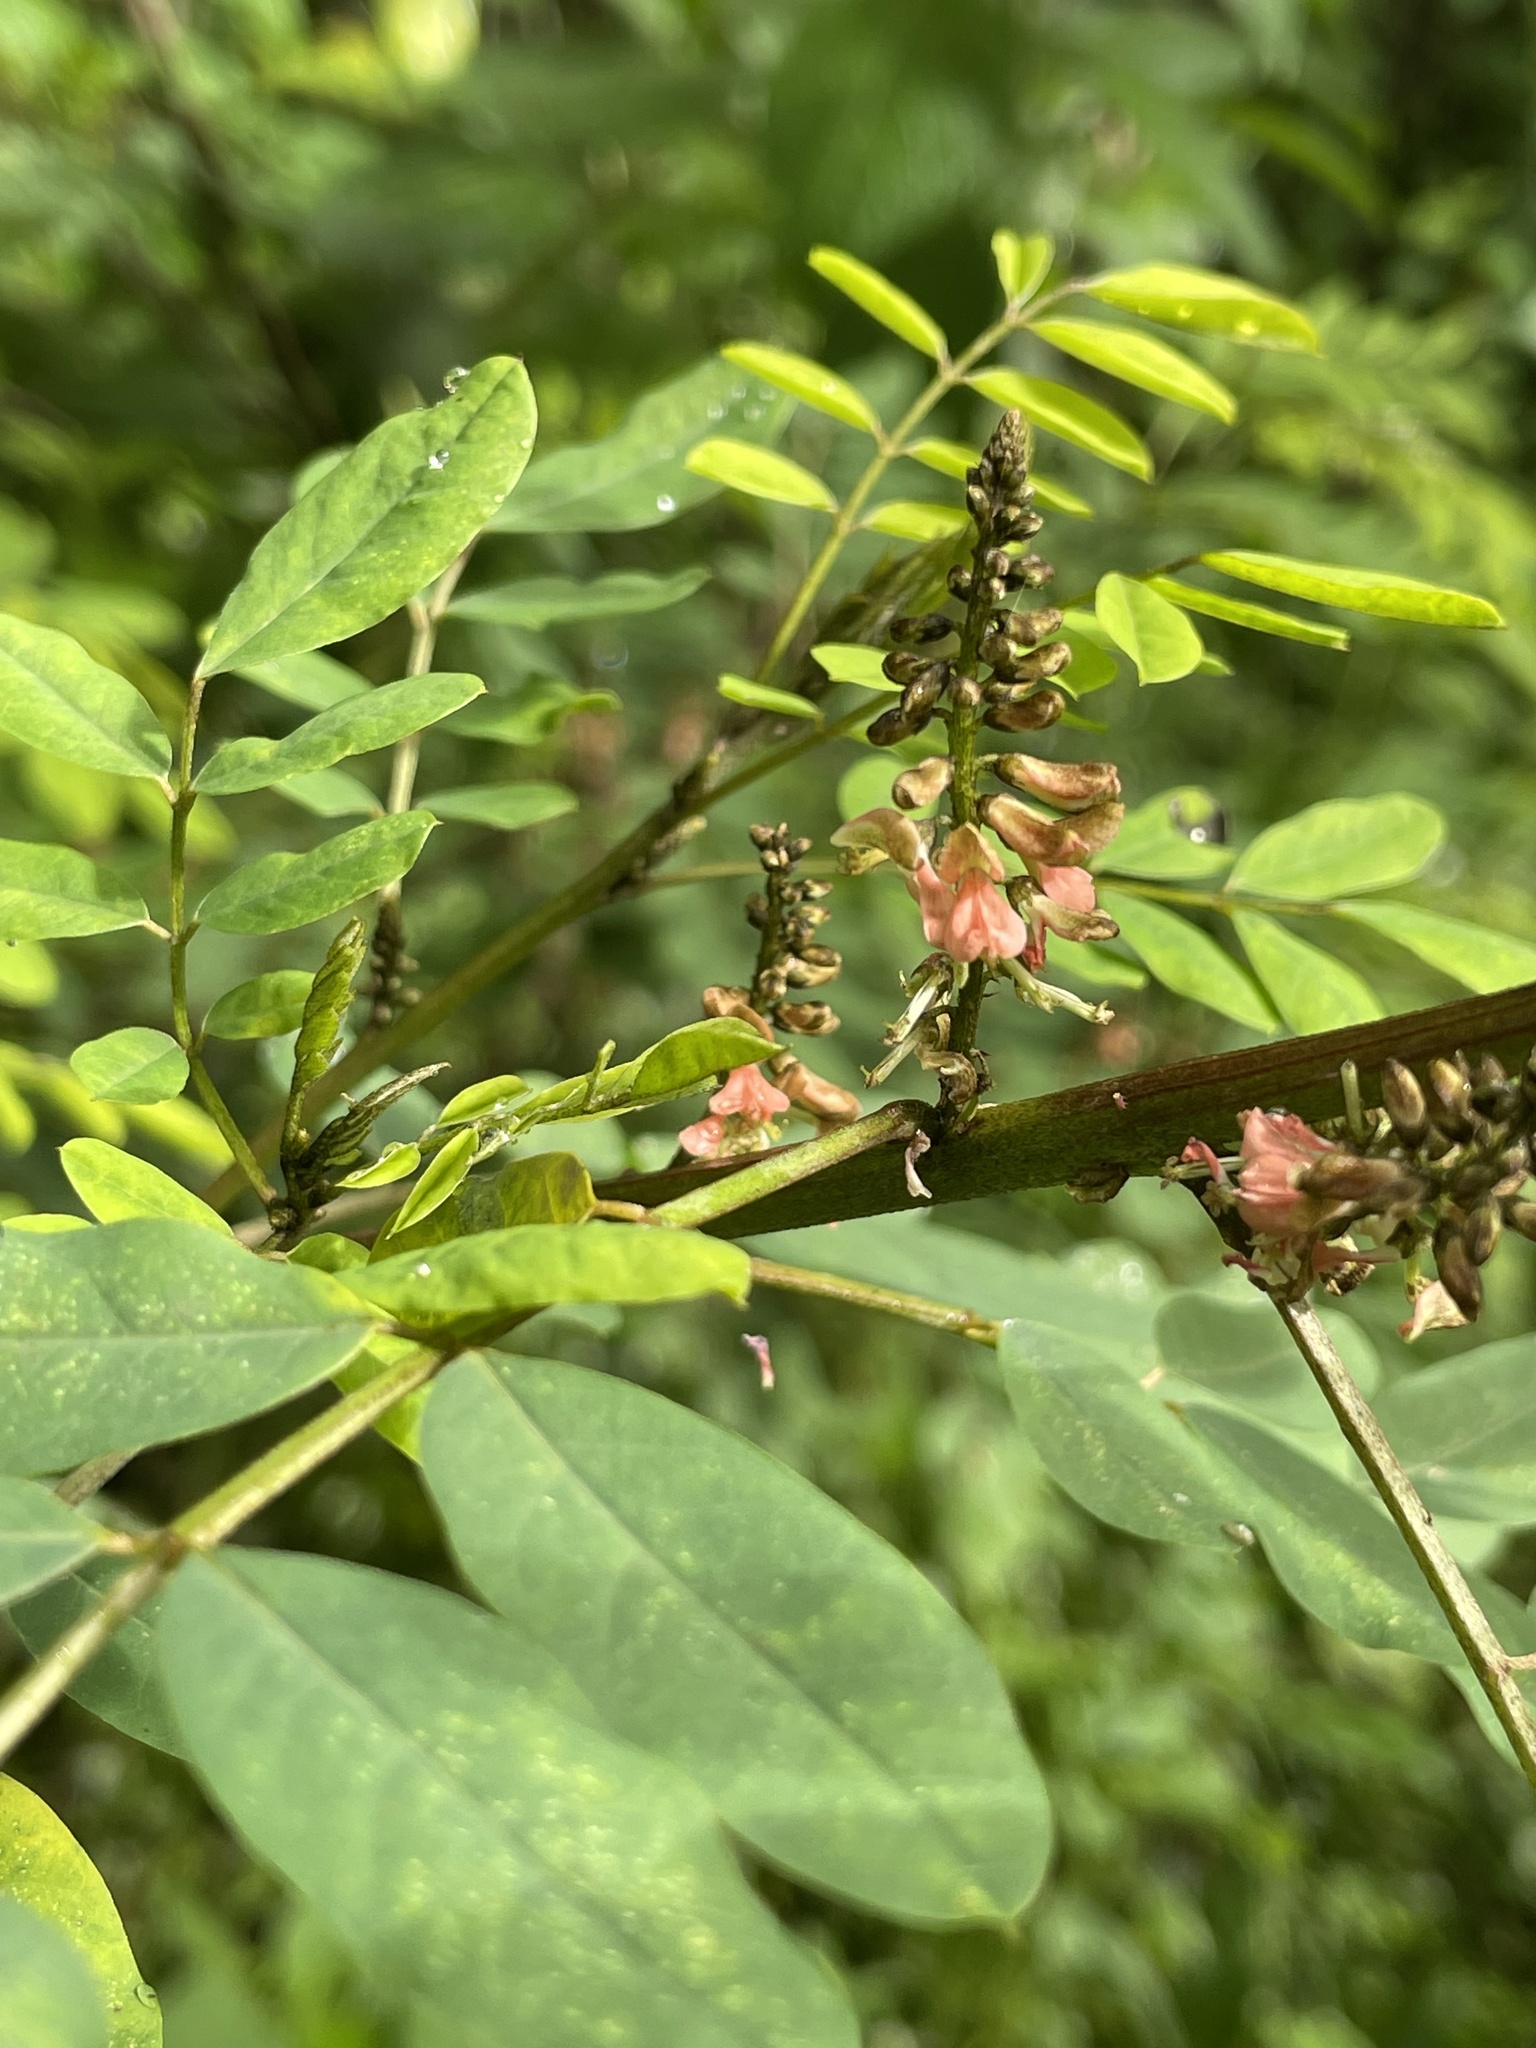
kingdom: Plantae
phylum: Tracheophyta
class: Magnoliopsida
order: Fabales
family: Fabaceae
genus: Indigofera
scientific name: Indigofera suffruticosa
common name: Anil de pasto
